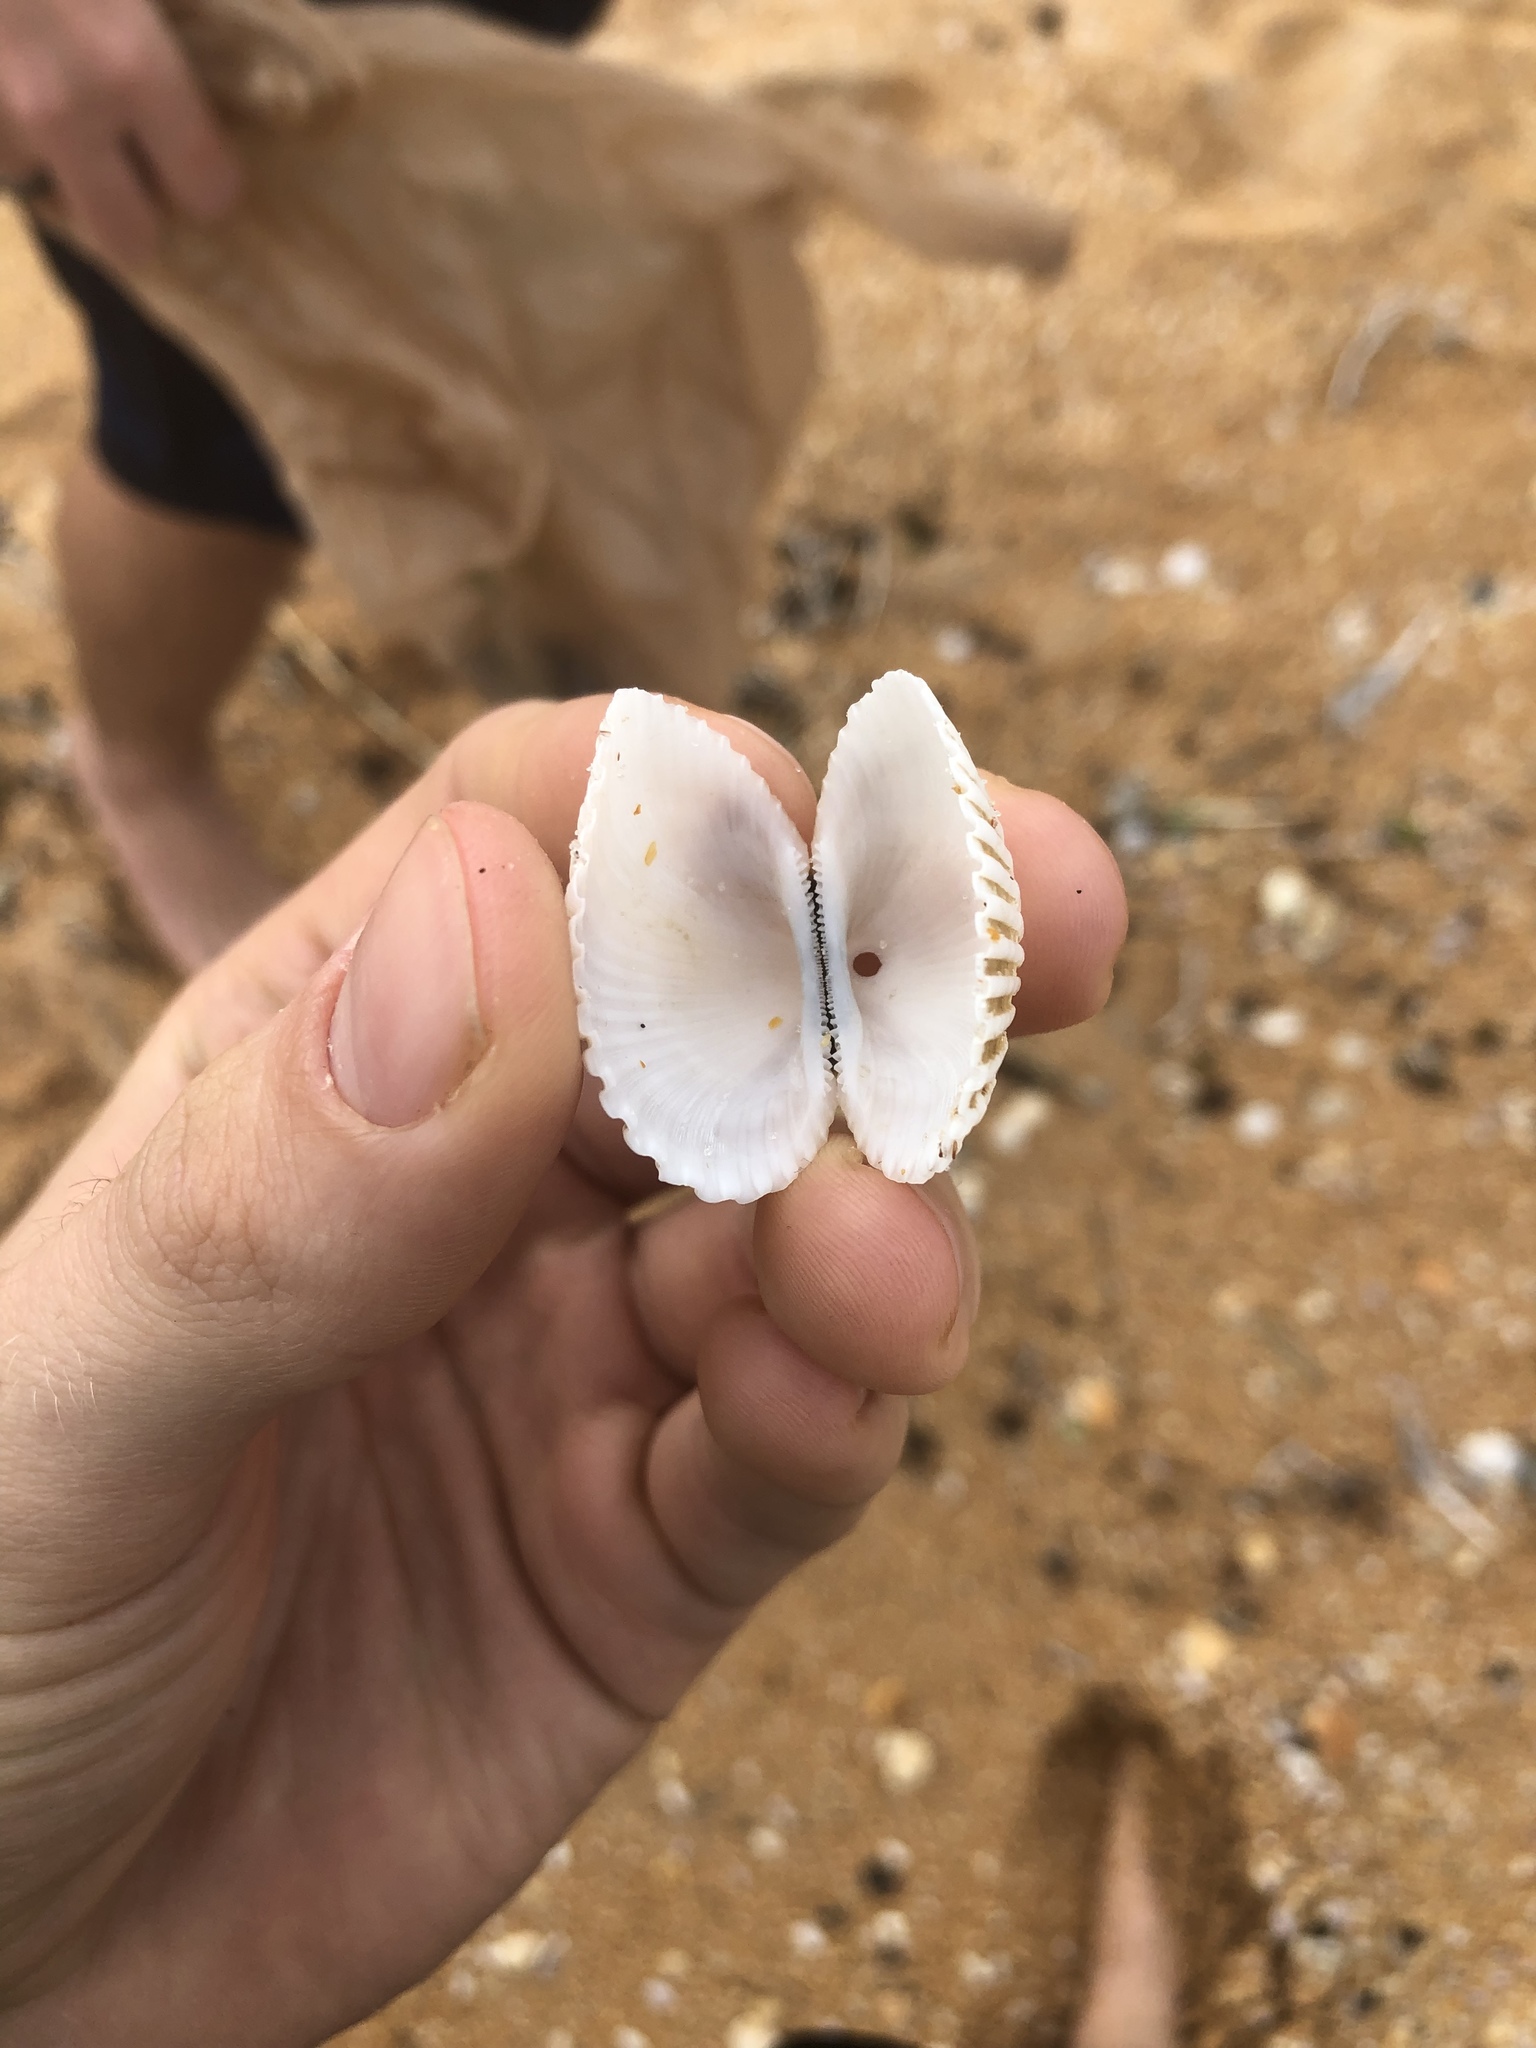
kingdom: Animalia
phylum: Mollusca
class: Bivalvia
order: Arcida
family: Arcidae
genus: Anadara
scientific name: Anadara brasiliana
